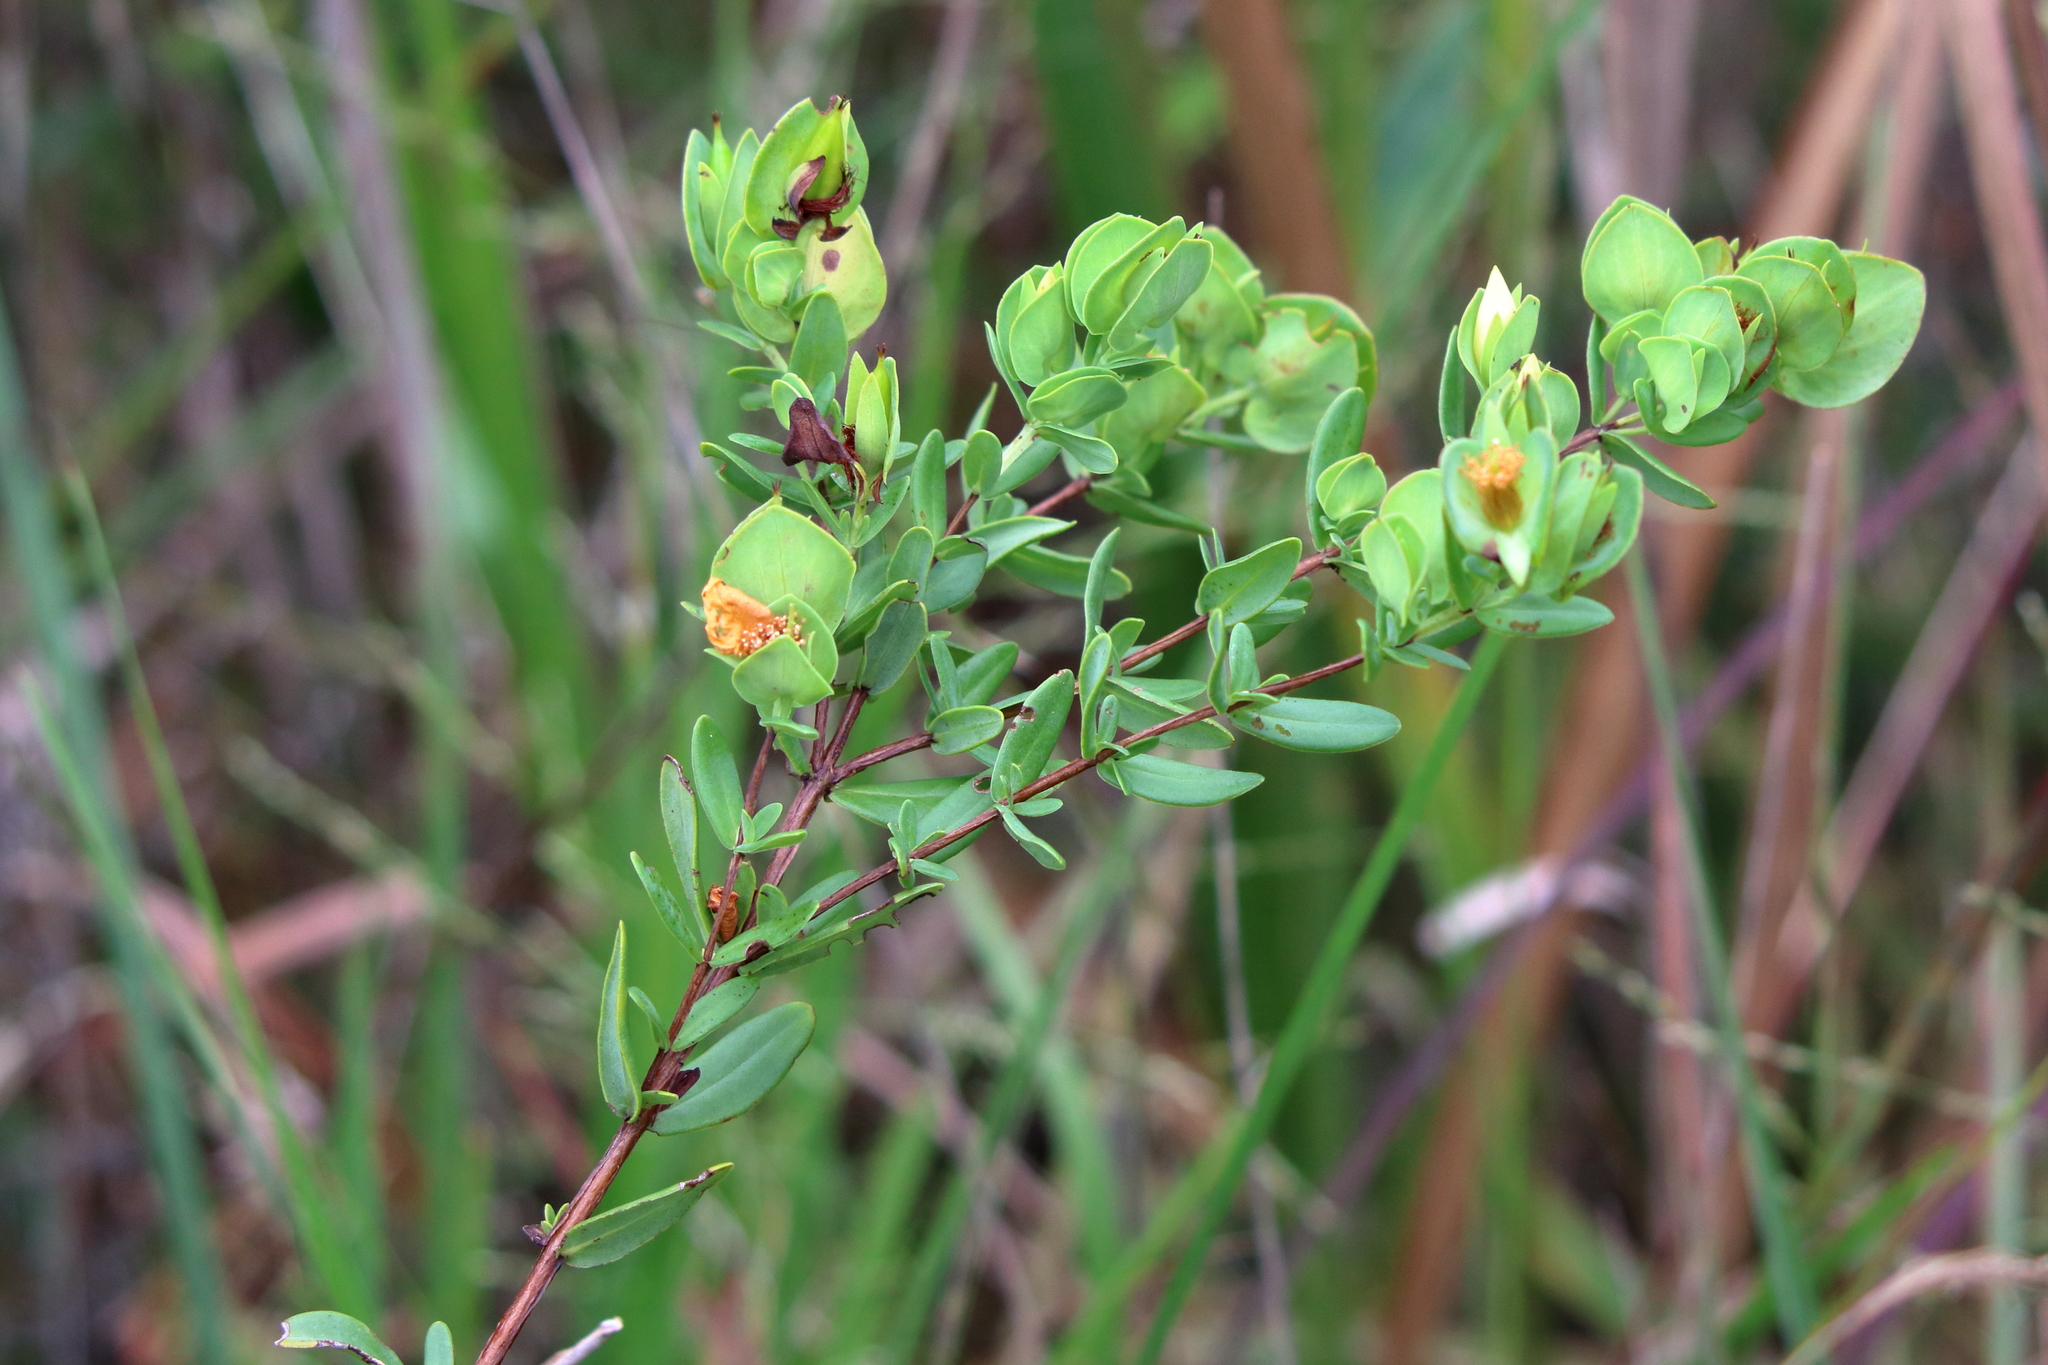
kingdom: Plantae
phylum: Tracheophyta
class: Magnoliopsida
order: Malpighiales
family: Hypericaceae
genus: Hypericum
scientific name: Hypericum crux-andreae
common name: St.-peter's-wort
